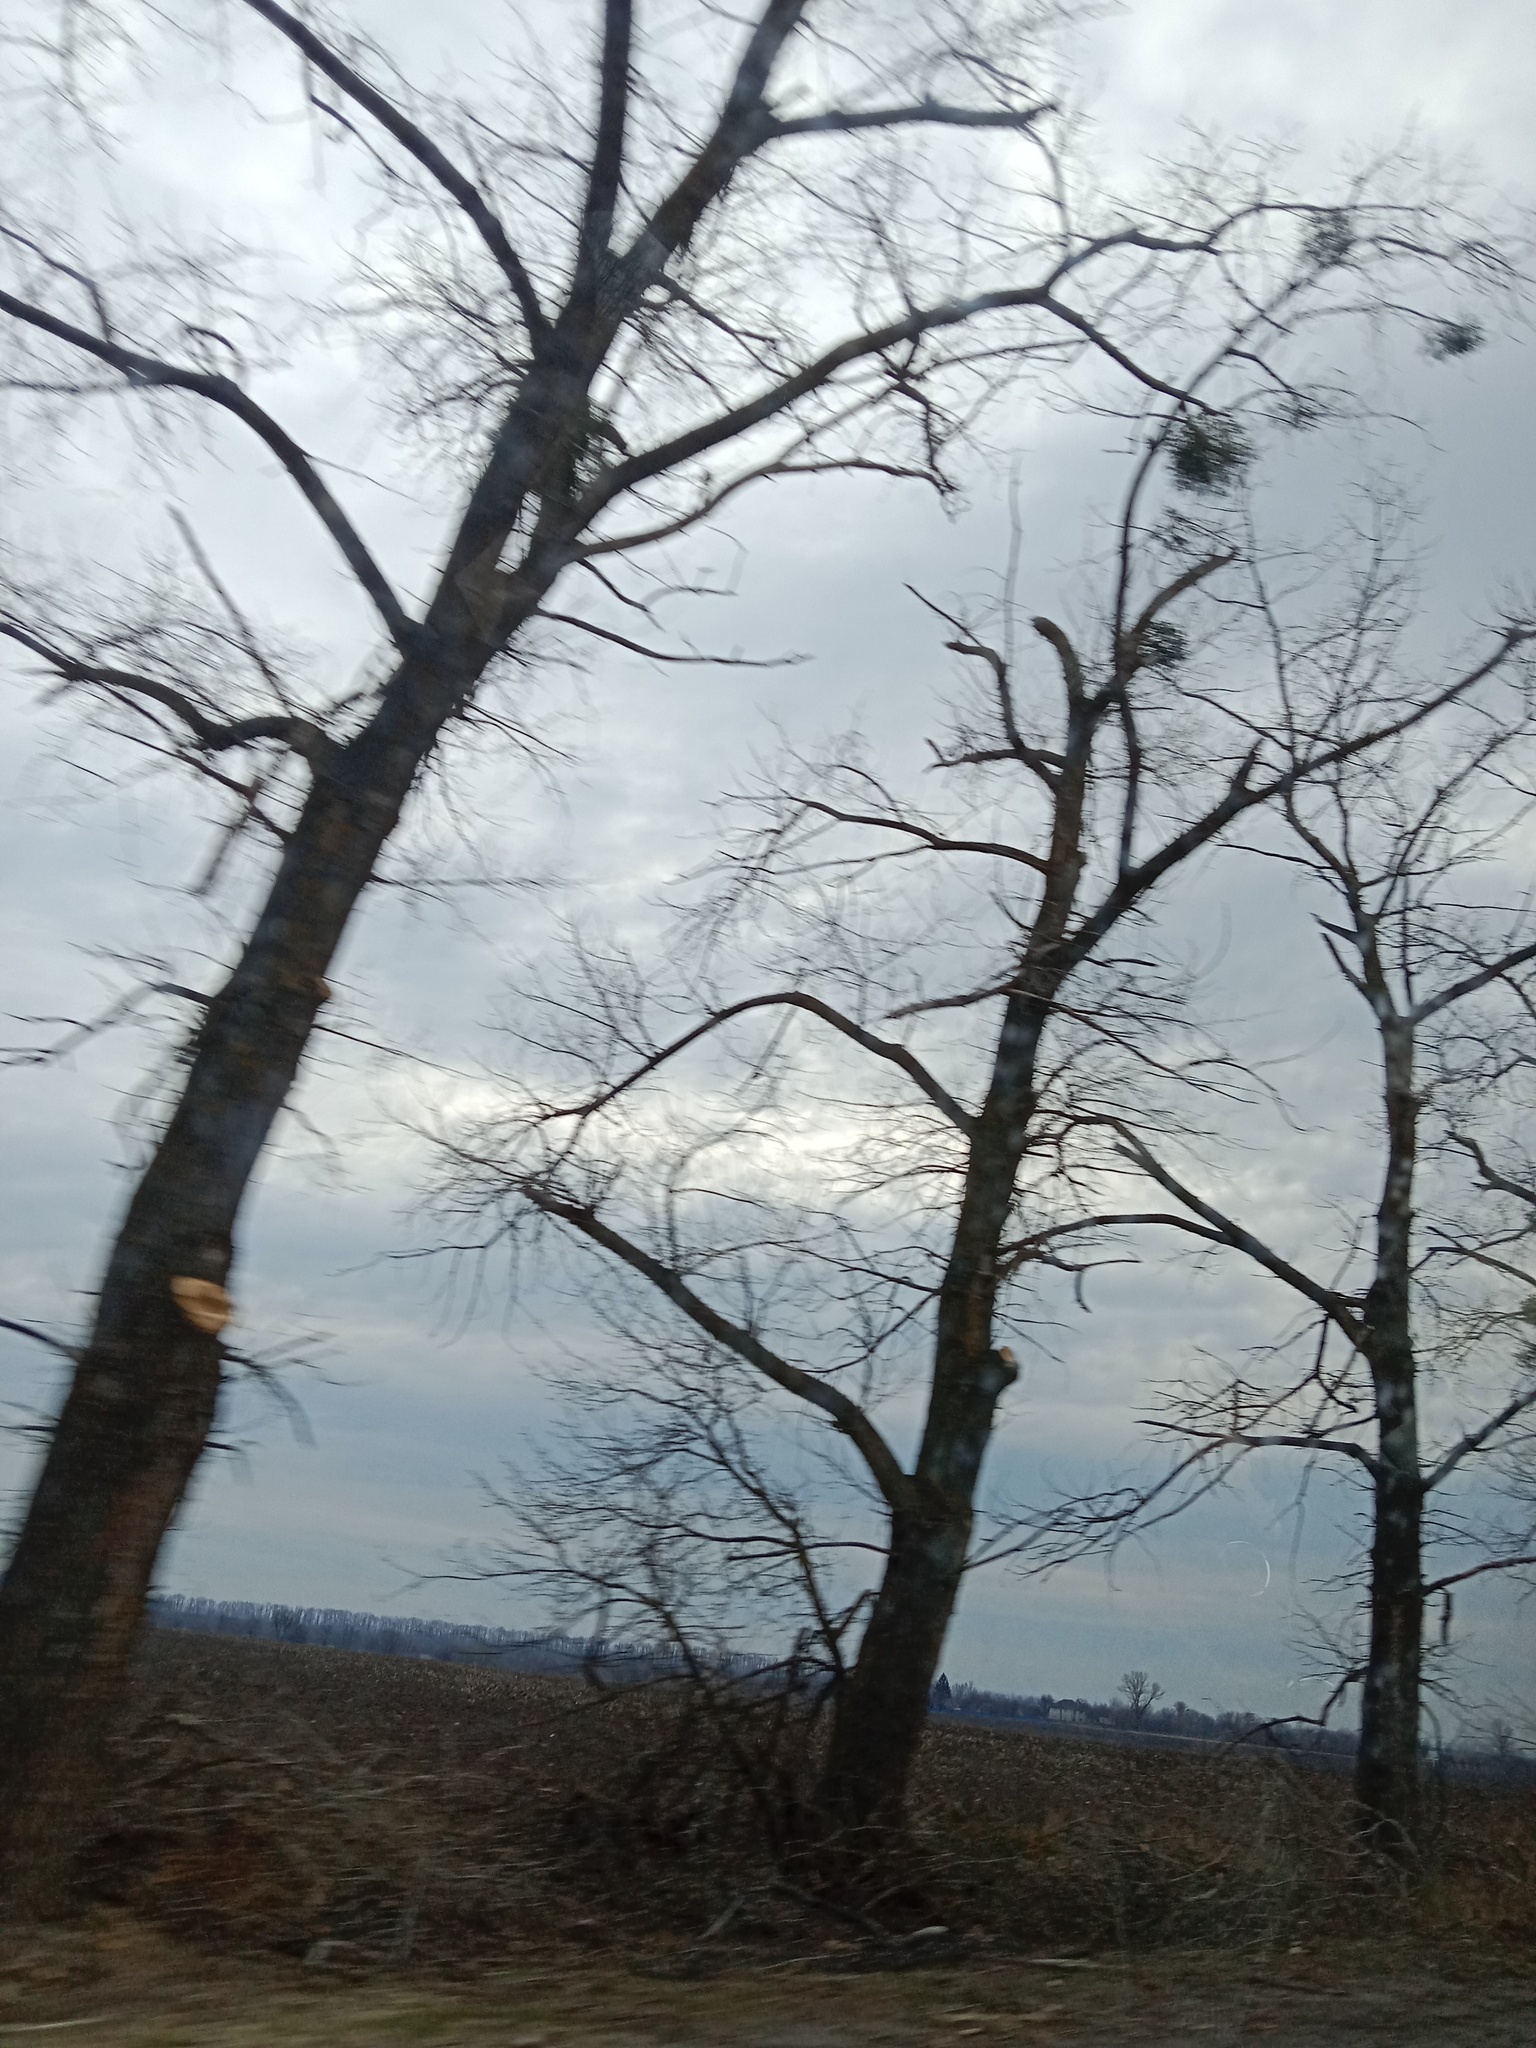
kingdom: Plantae
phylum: Tracheophyta
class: Magnoliopsida
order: Santalales
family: Viscaceae
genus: Viscum
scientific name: Viscum album
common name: Mistletoe
